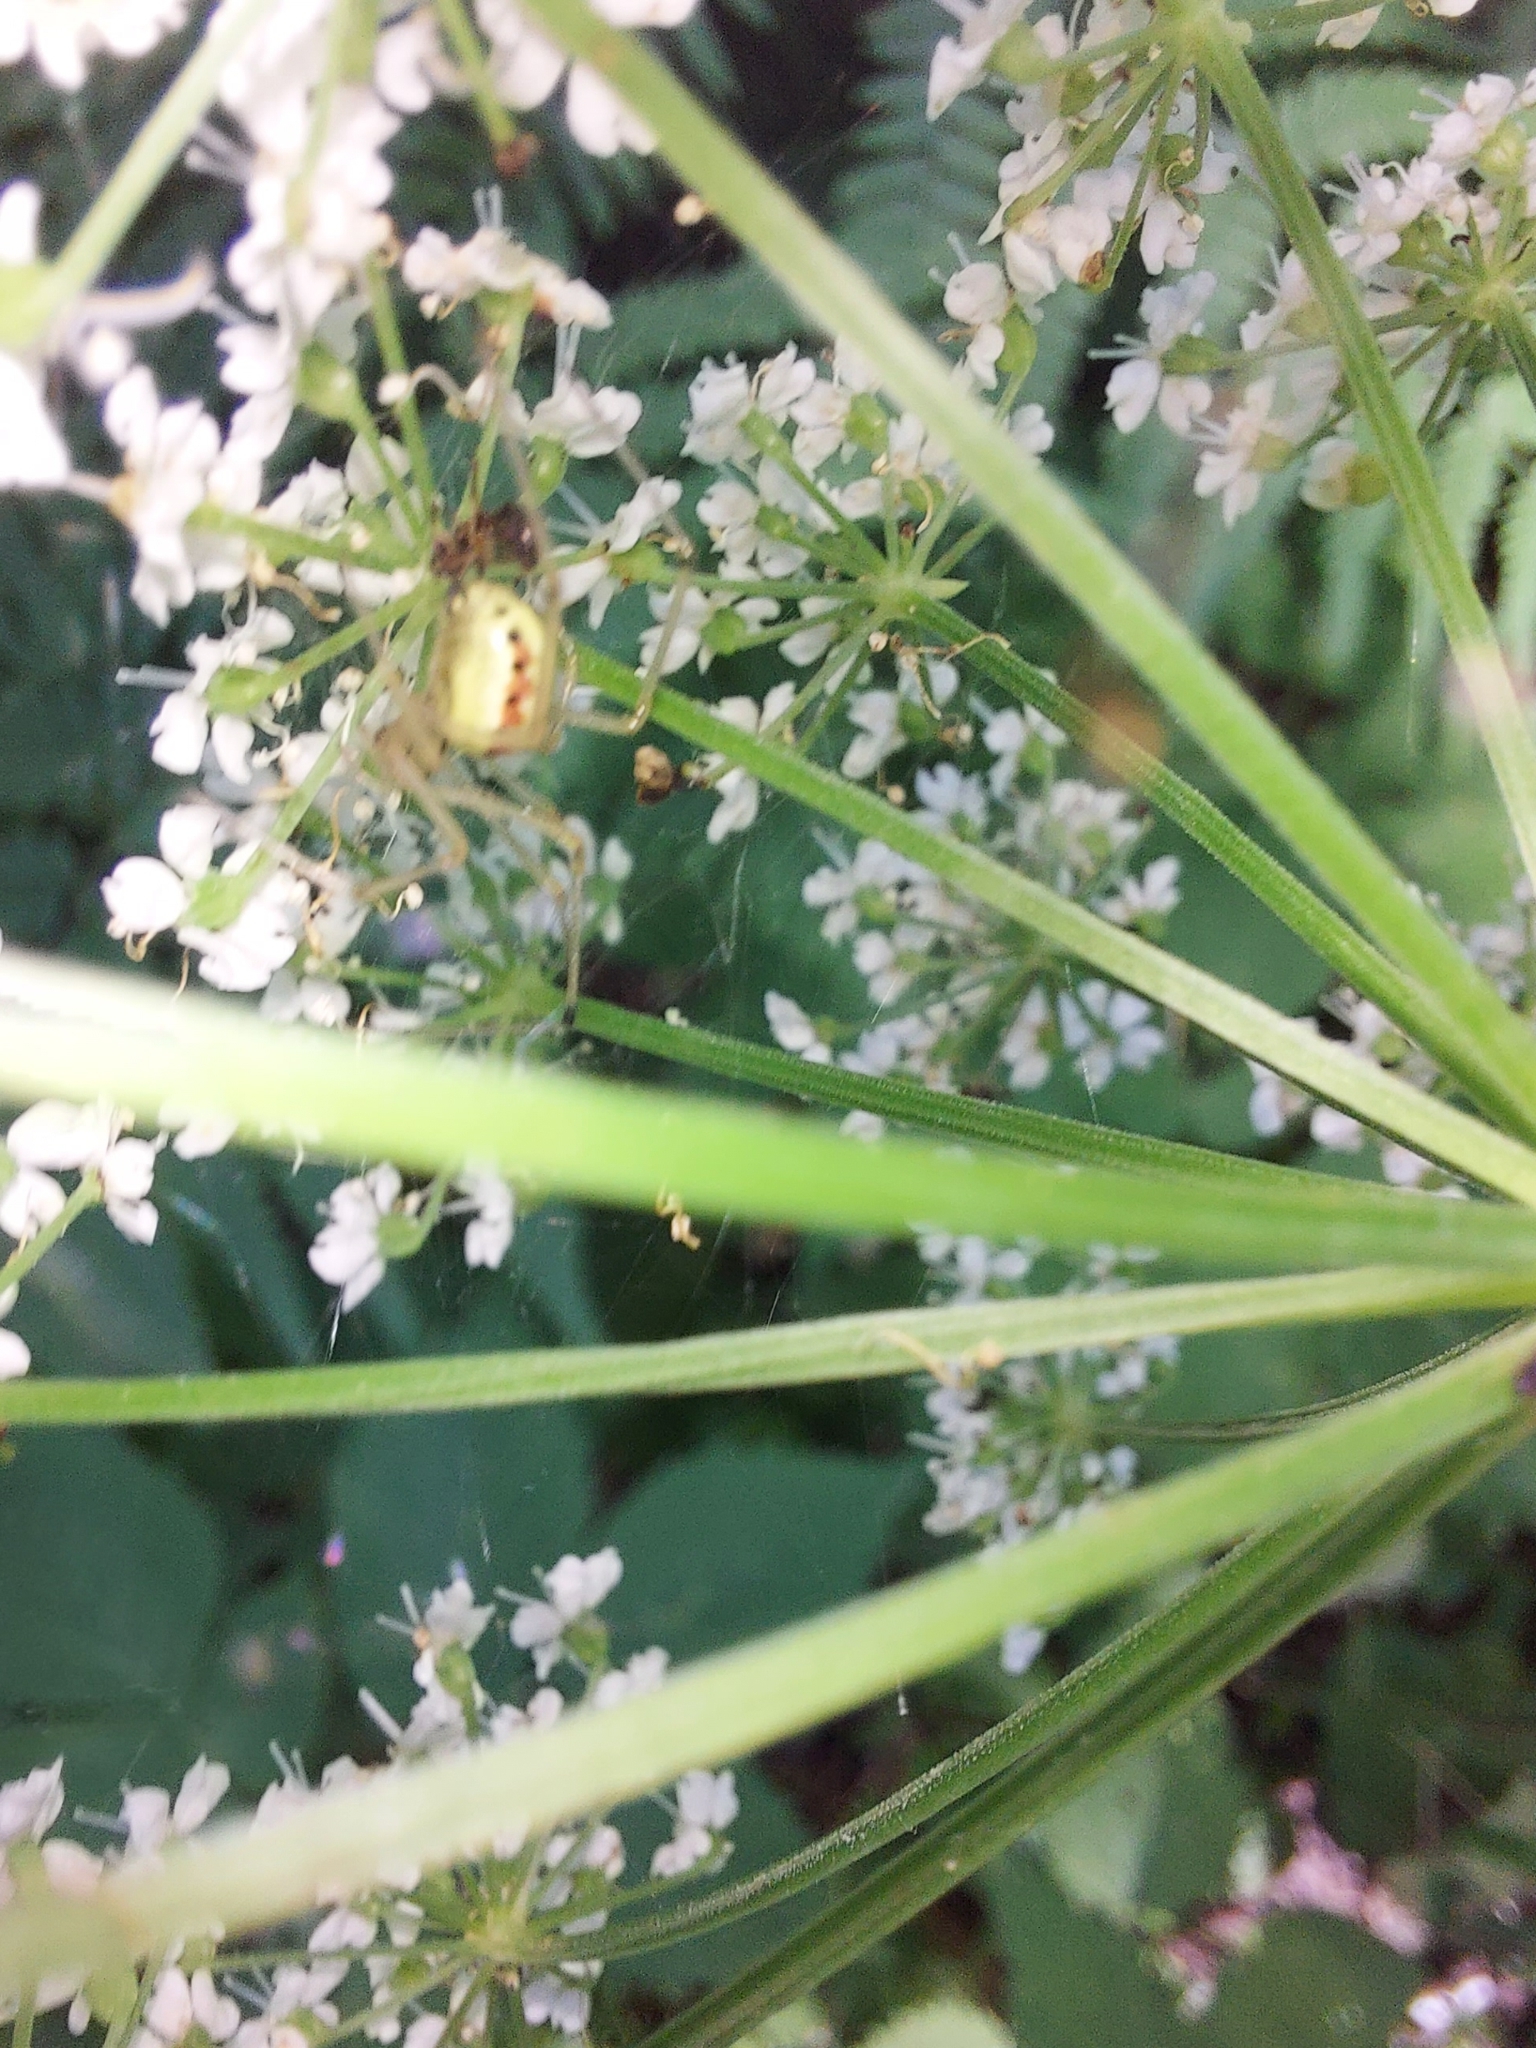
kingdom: Animalia
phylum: Arthropoda
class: Arachnida
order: Araneae
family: Theridiidae
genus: Enoplognatha
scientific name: Enoplognatha ovata
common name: Common candy-striped spider
